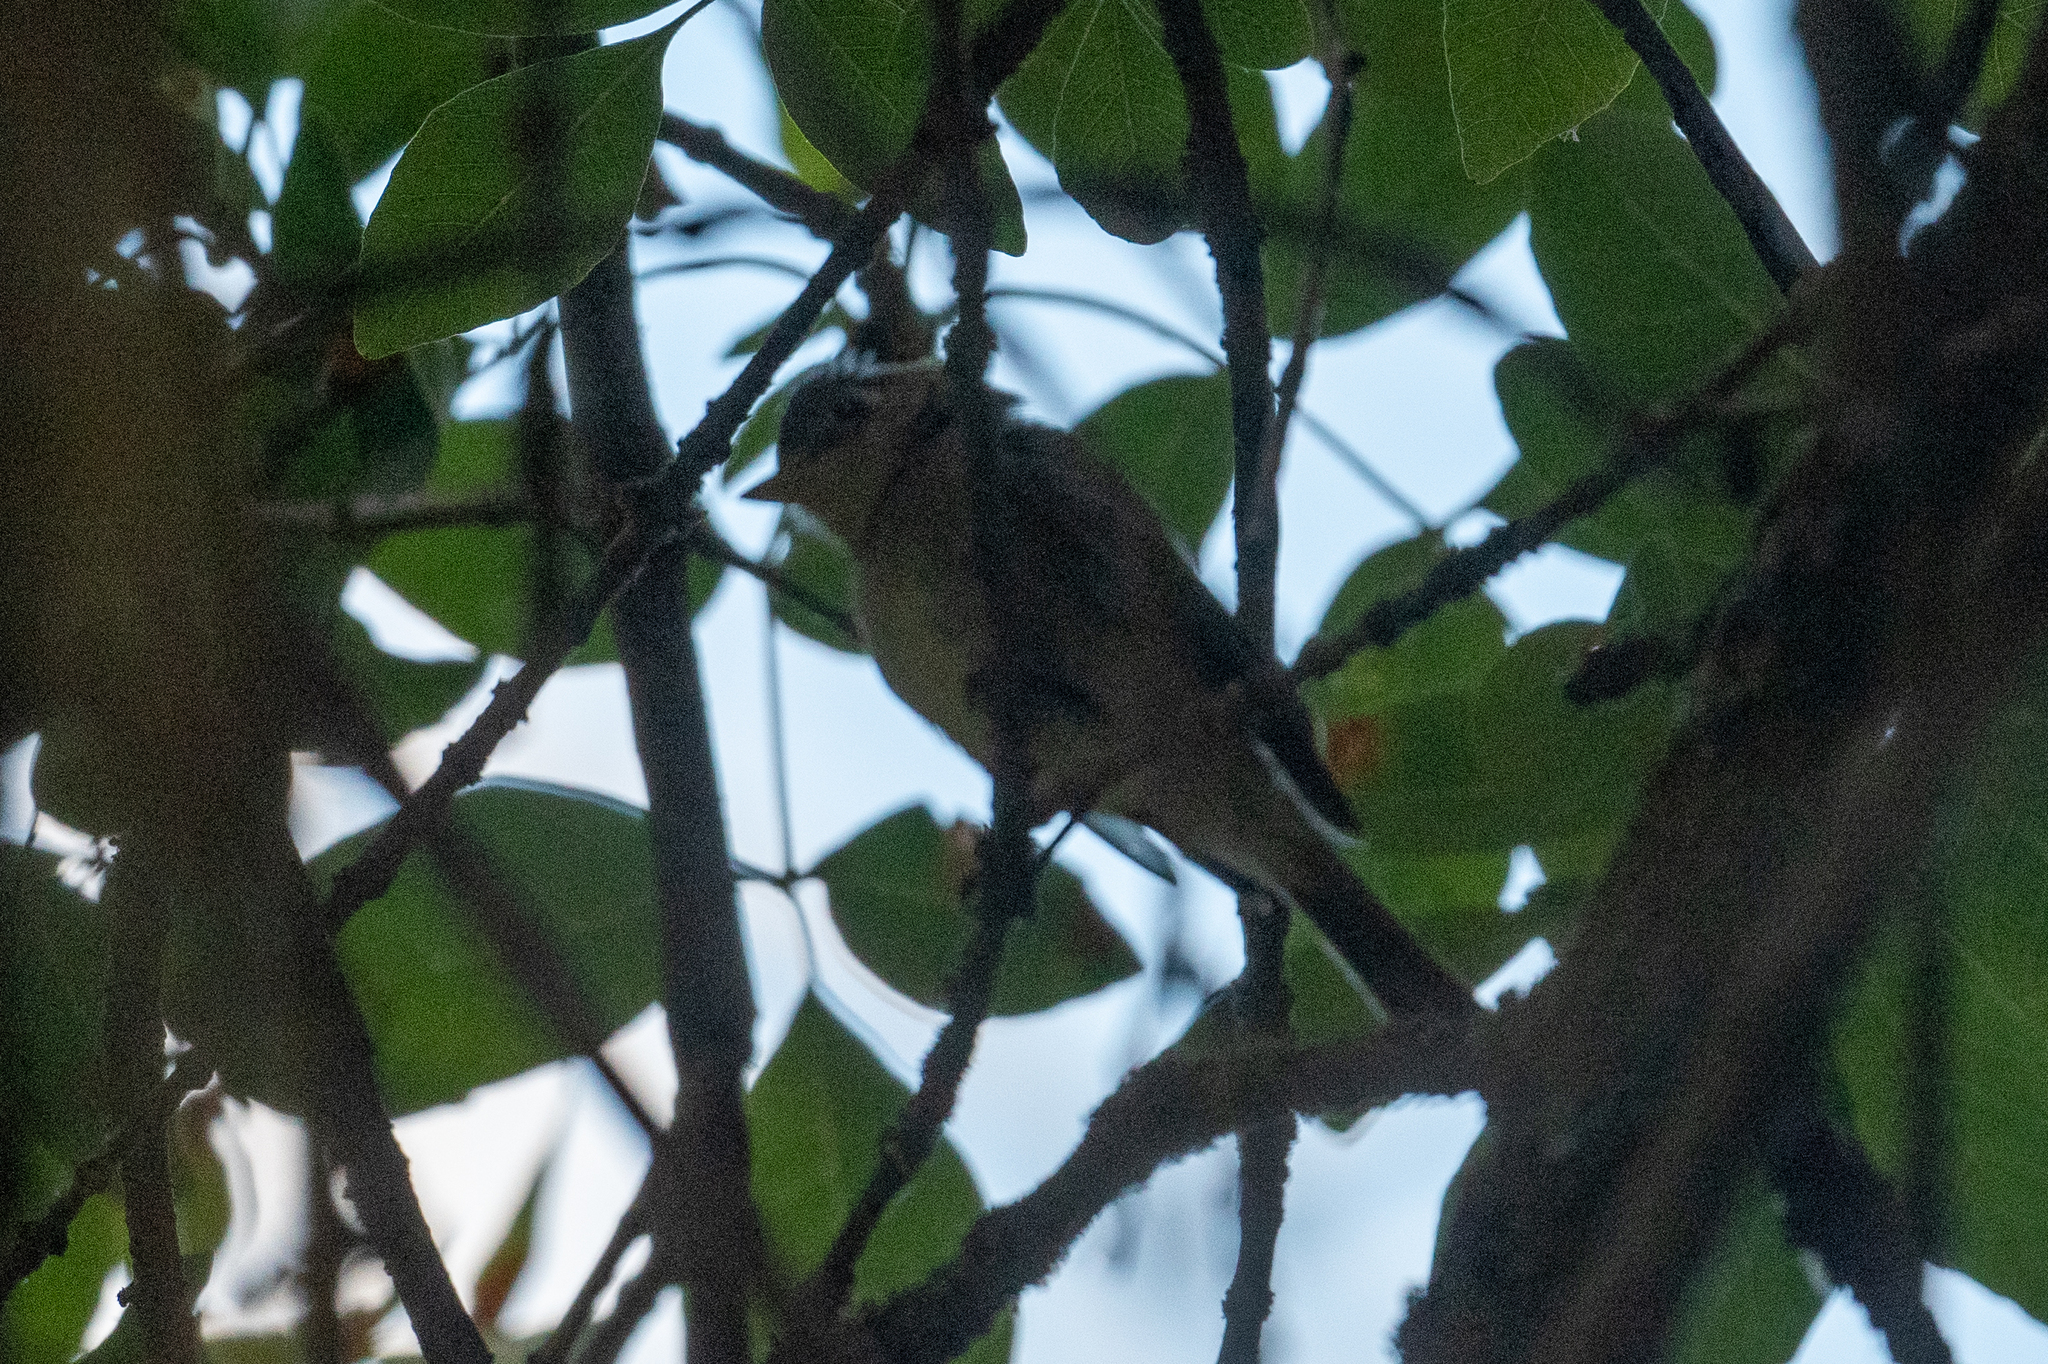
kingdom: Animalia
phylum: Chordata
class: Aves
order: Passeriformes
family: Tyrannidae
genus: Empidonax
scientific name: Empidonax
